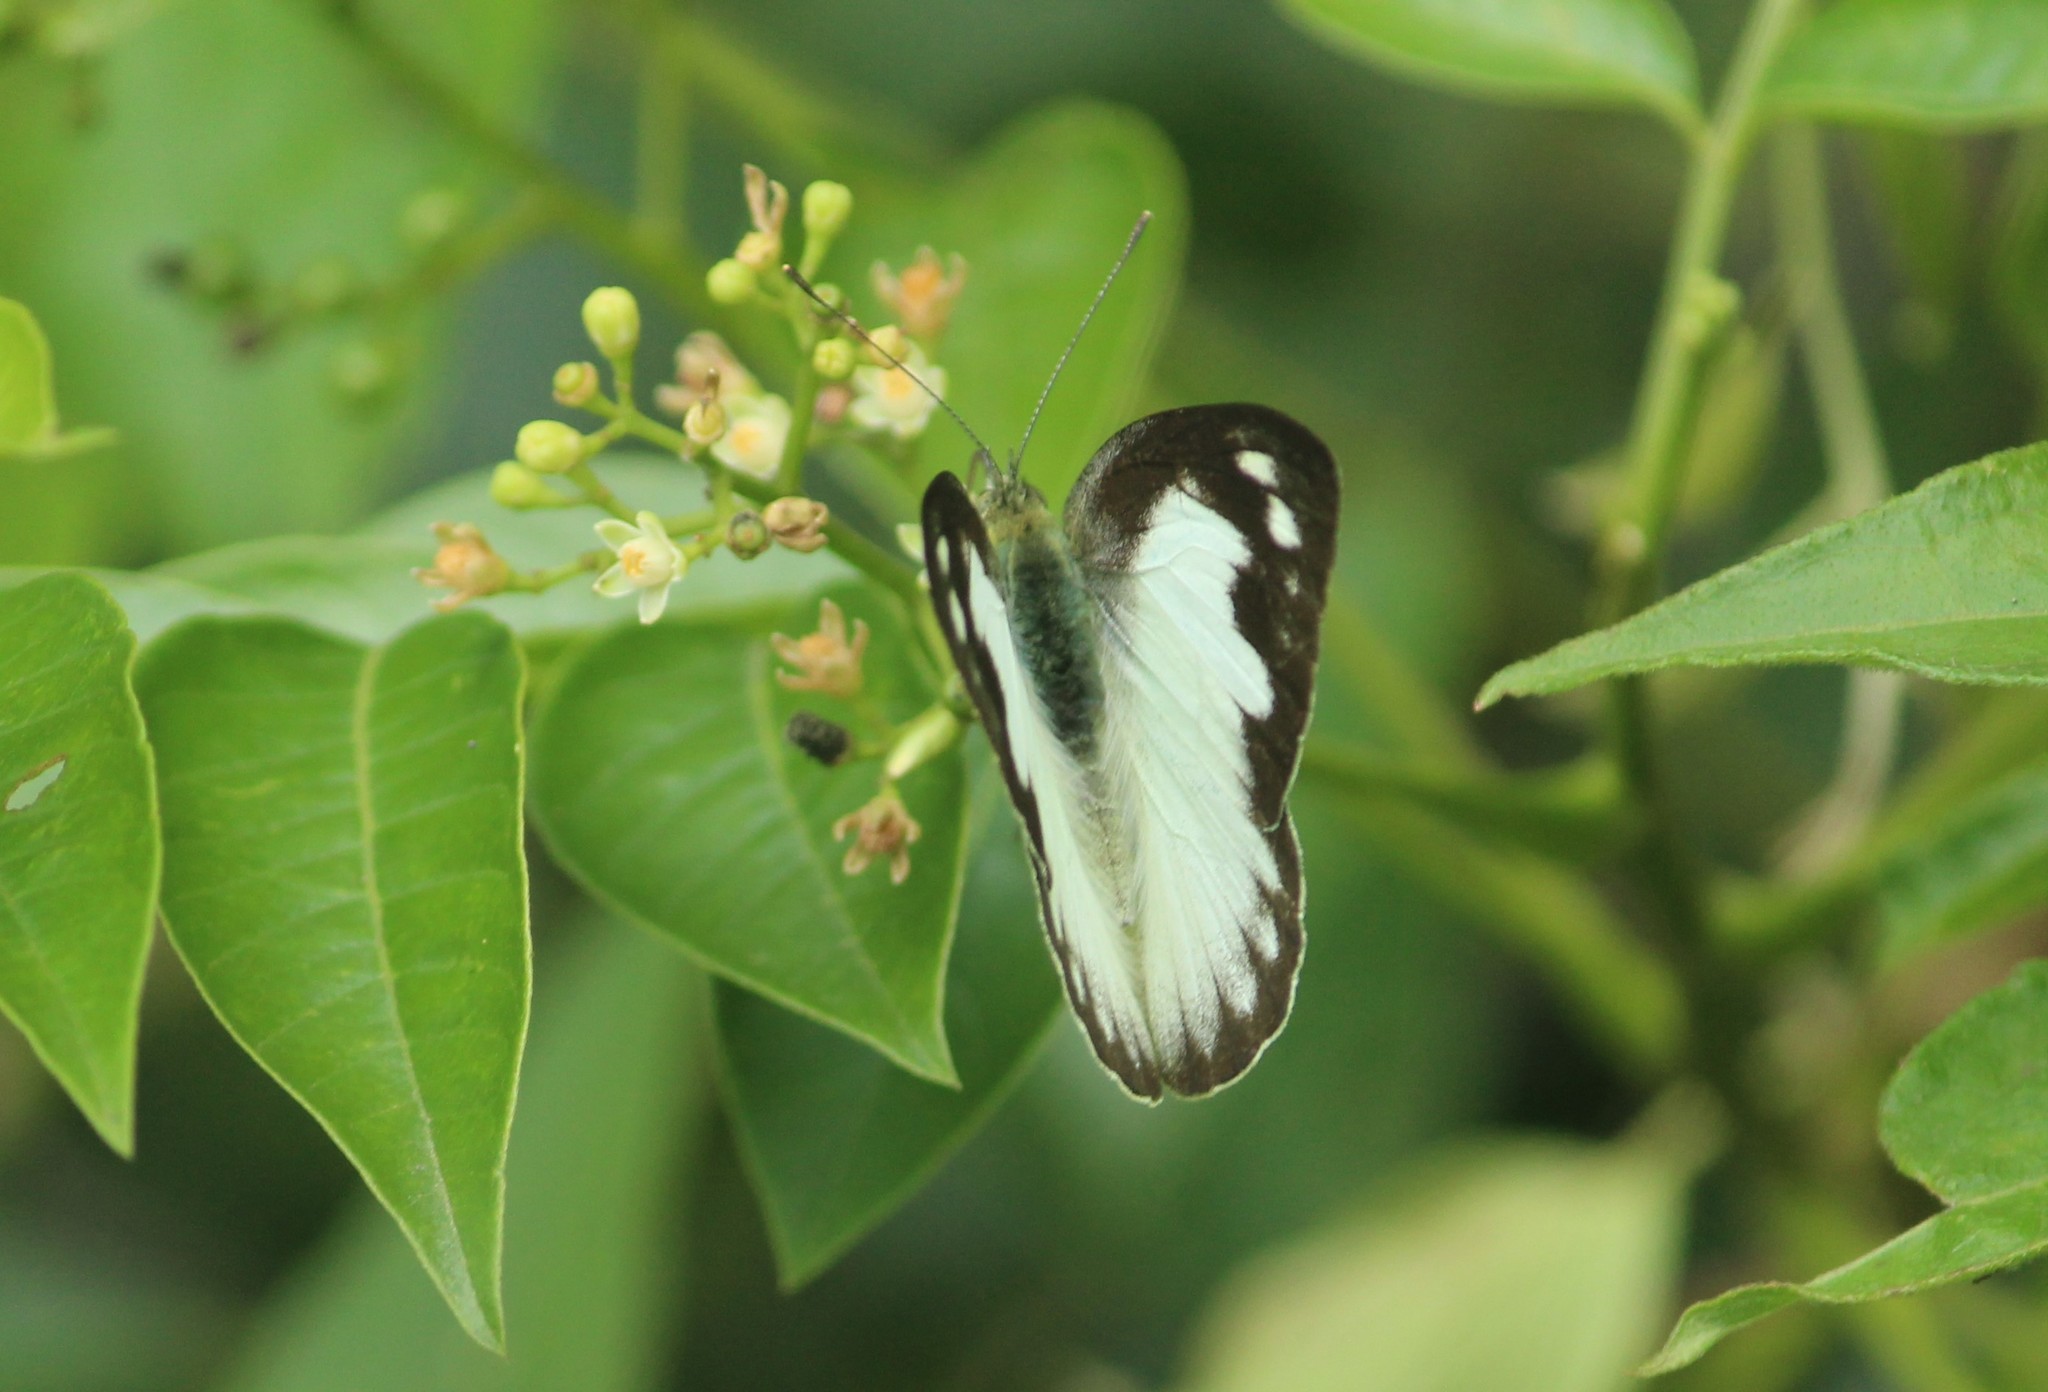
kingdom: Animalia
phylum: Arthropoda
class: Insecta
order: Lepidoptera
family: Pieridae
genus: Appias
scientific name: Appias albina
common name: Common albatross
